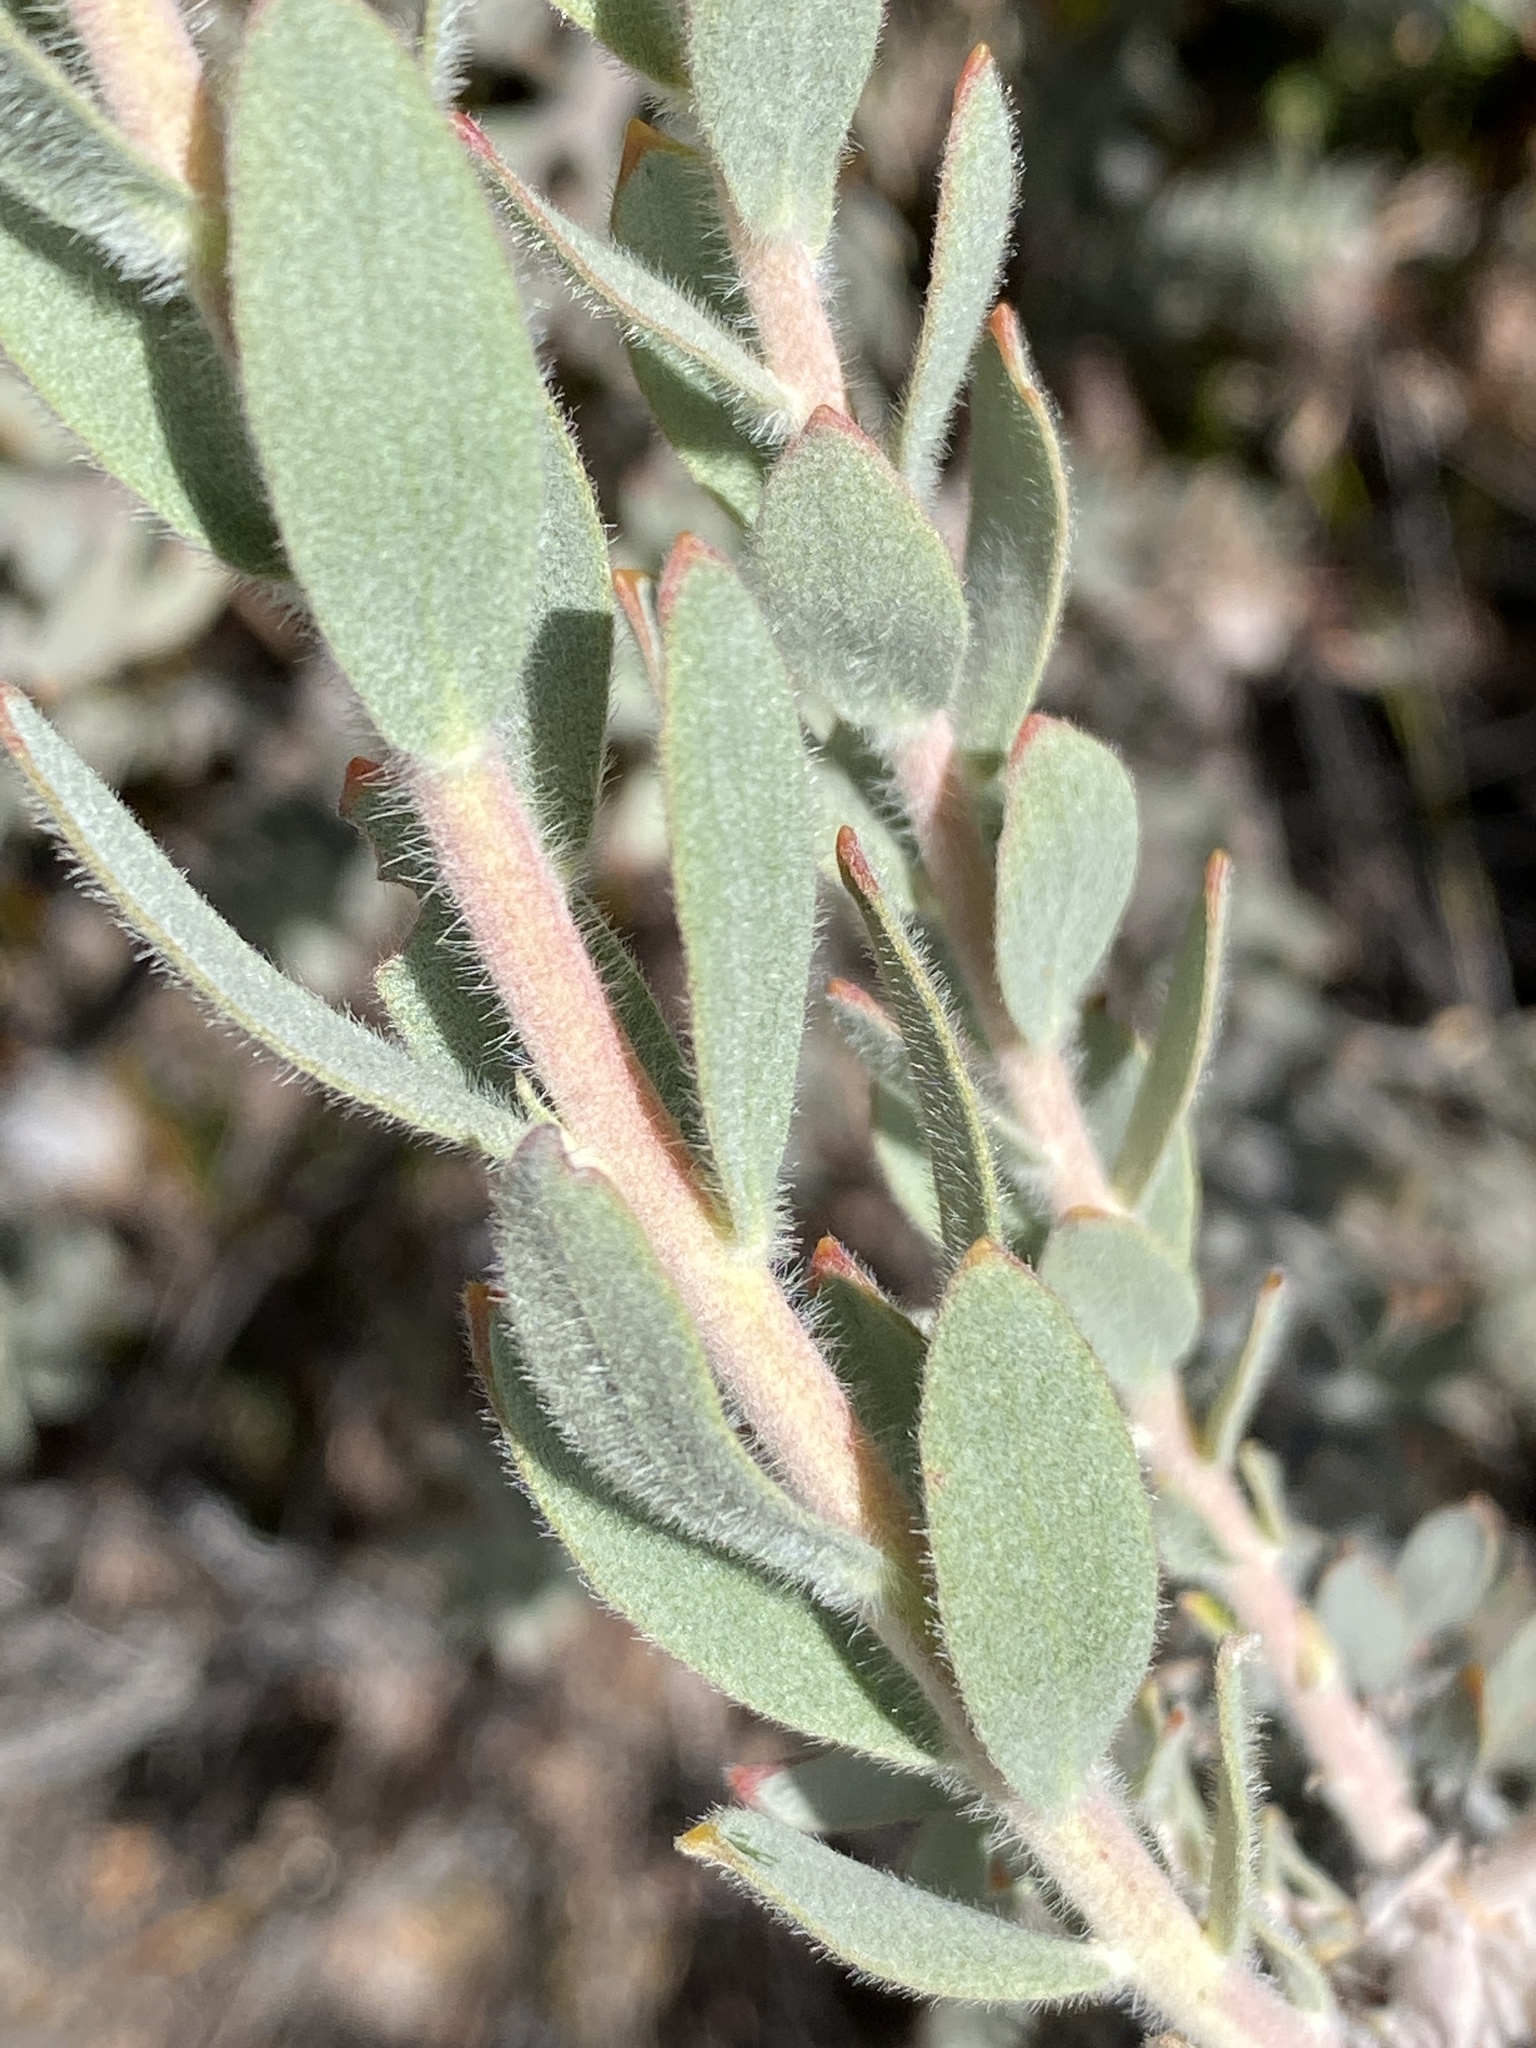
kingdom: Plantae
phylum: Tracheophyta
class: Magnoliopsida
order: Proteales
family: Proteaceae
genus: Leucospermum
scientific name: Leucospermum calligerum
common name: Arid pincushion
